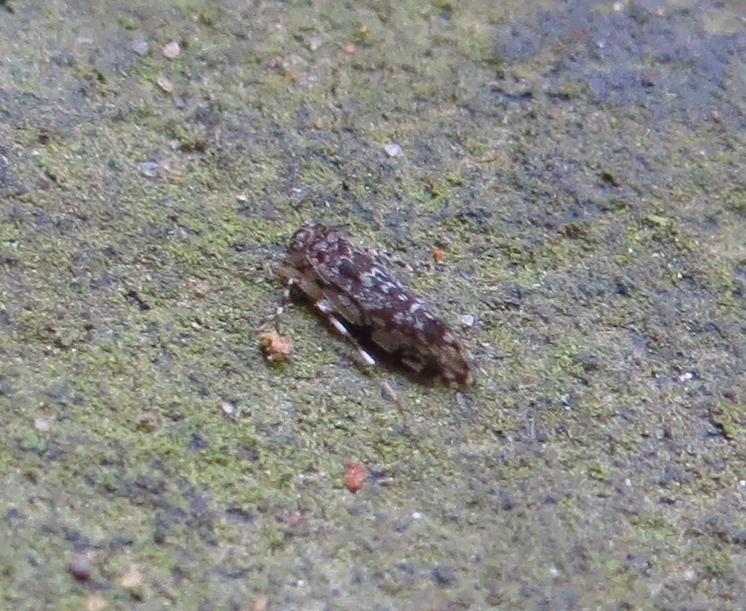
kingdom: Animalia
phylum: Arthropoda
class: Insecta
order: Psocodea
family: Amphientomidae
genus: Stimulopalpus
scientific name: Stimulopalpus japonicus
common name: Tropical bark louse
